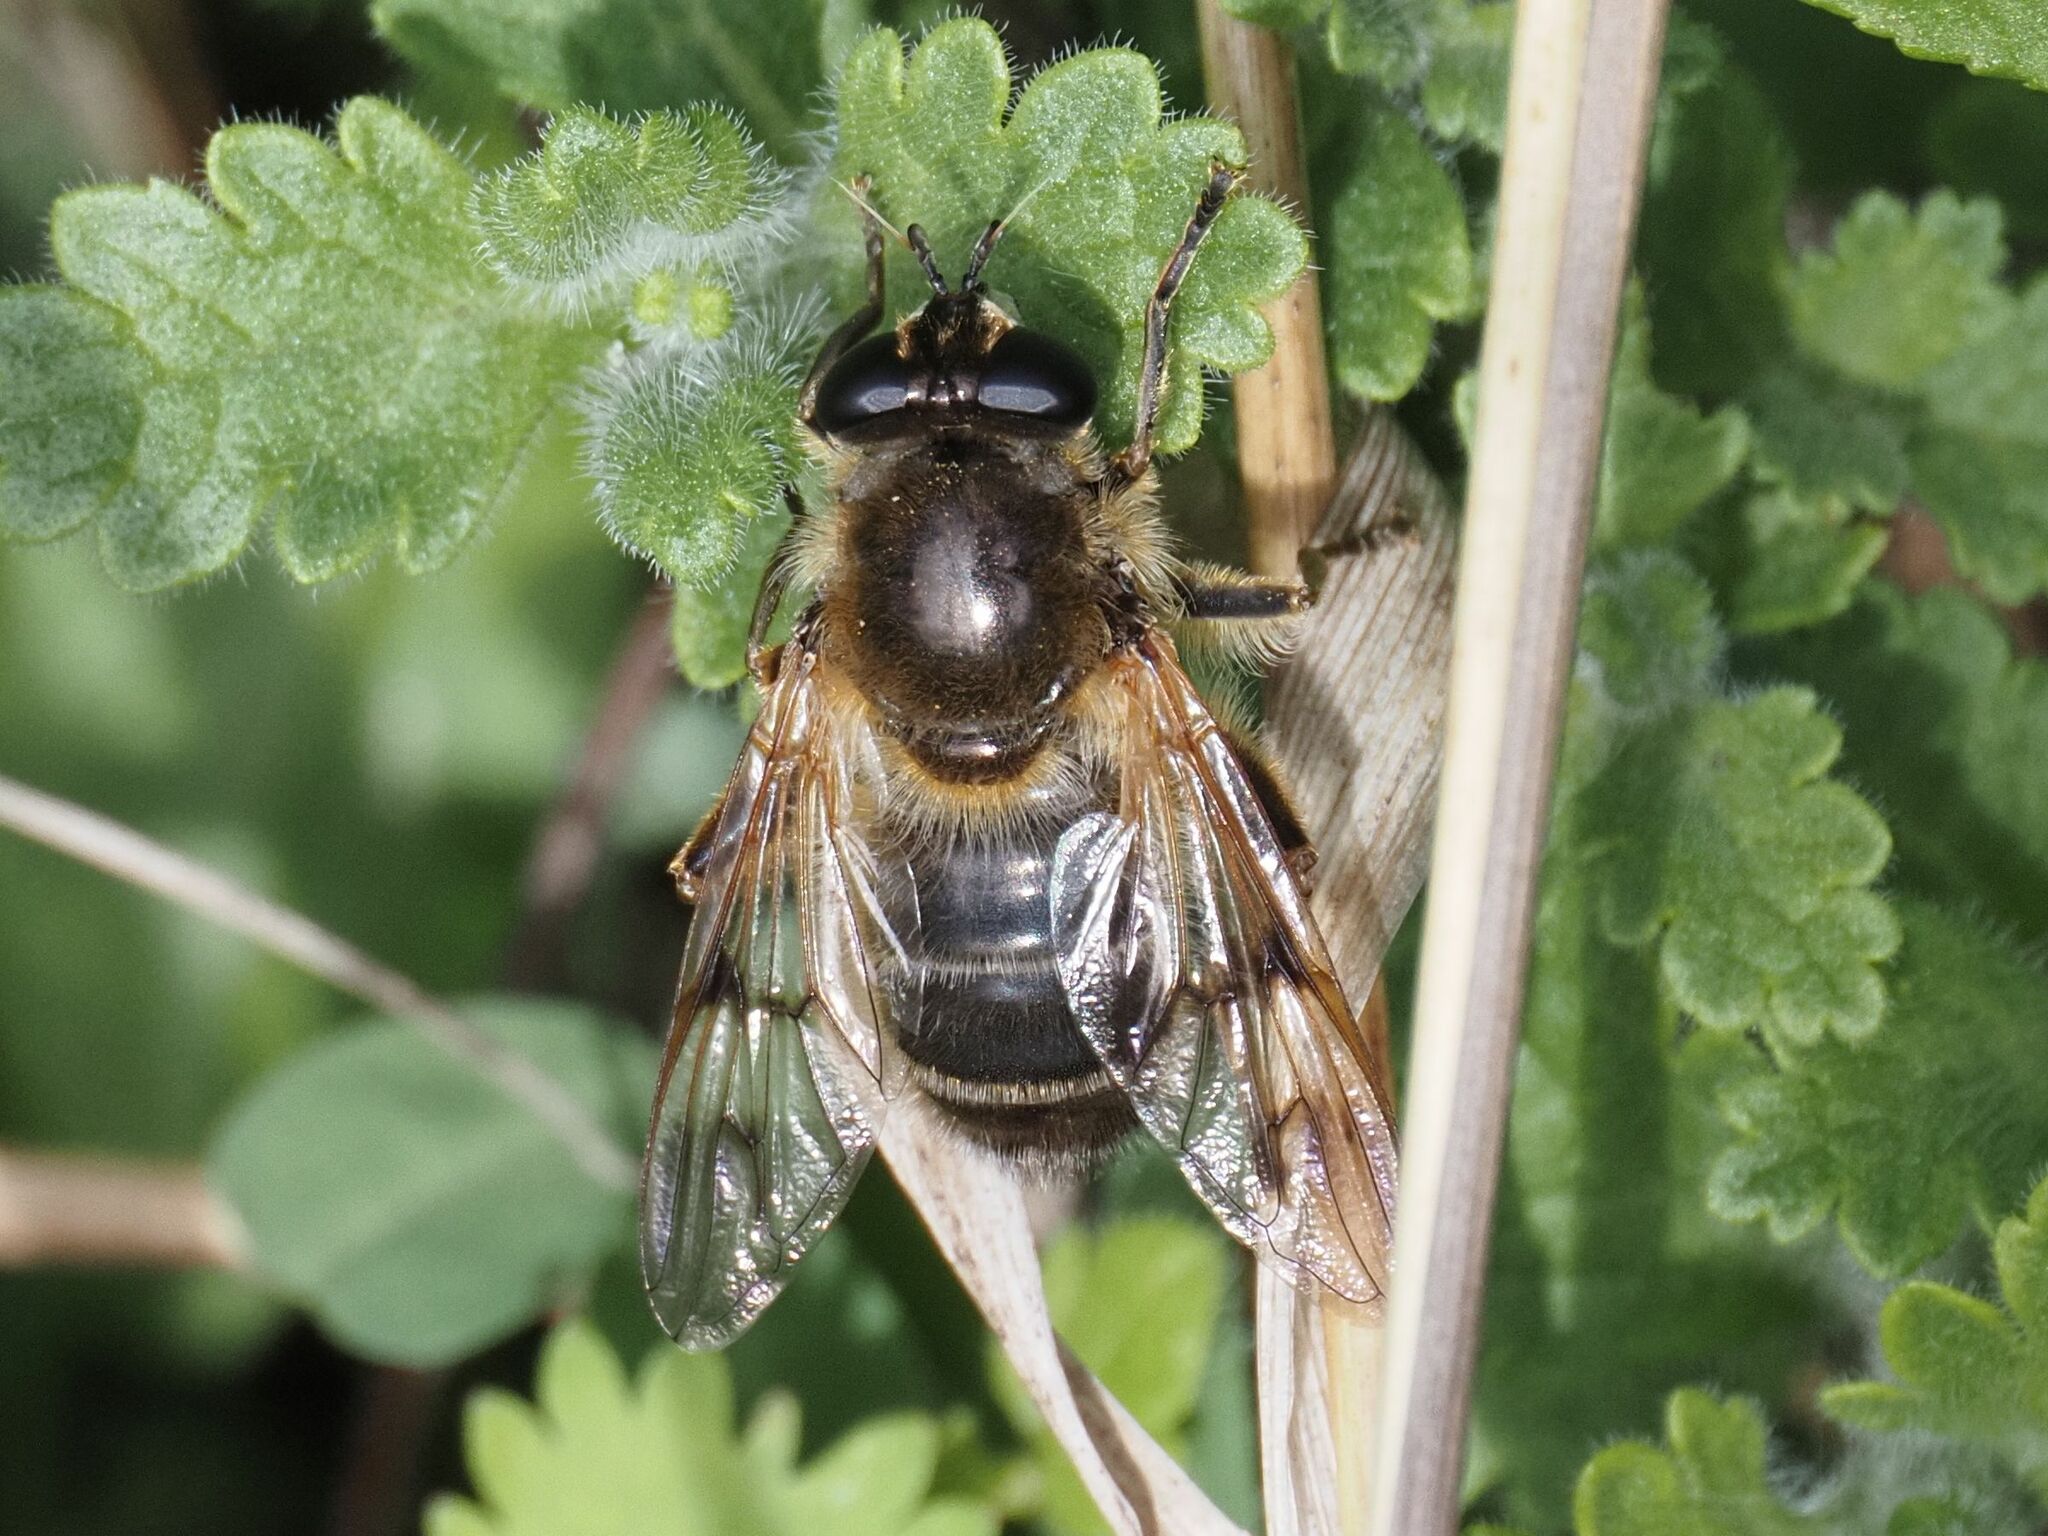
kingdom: Animalia
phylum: Arthropoda
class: Insecta
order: Diptera
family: Syrphidae
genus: Brachypalpus
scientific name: Brachypalpus valgus
